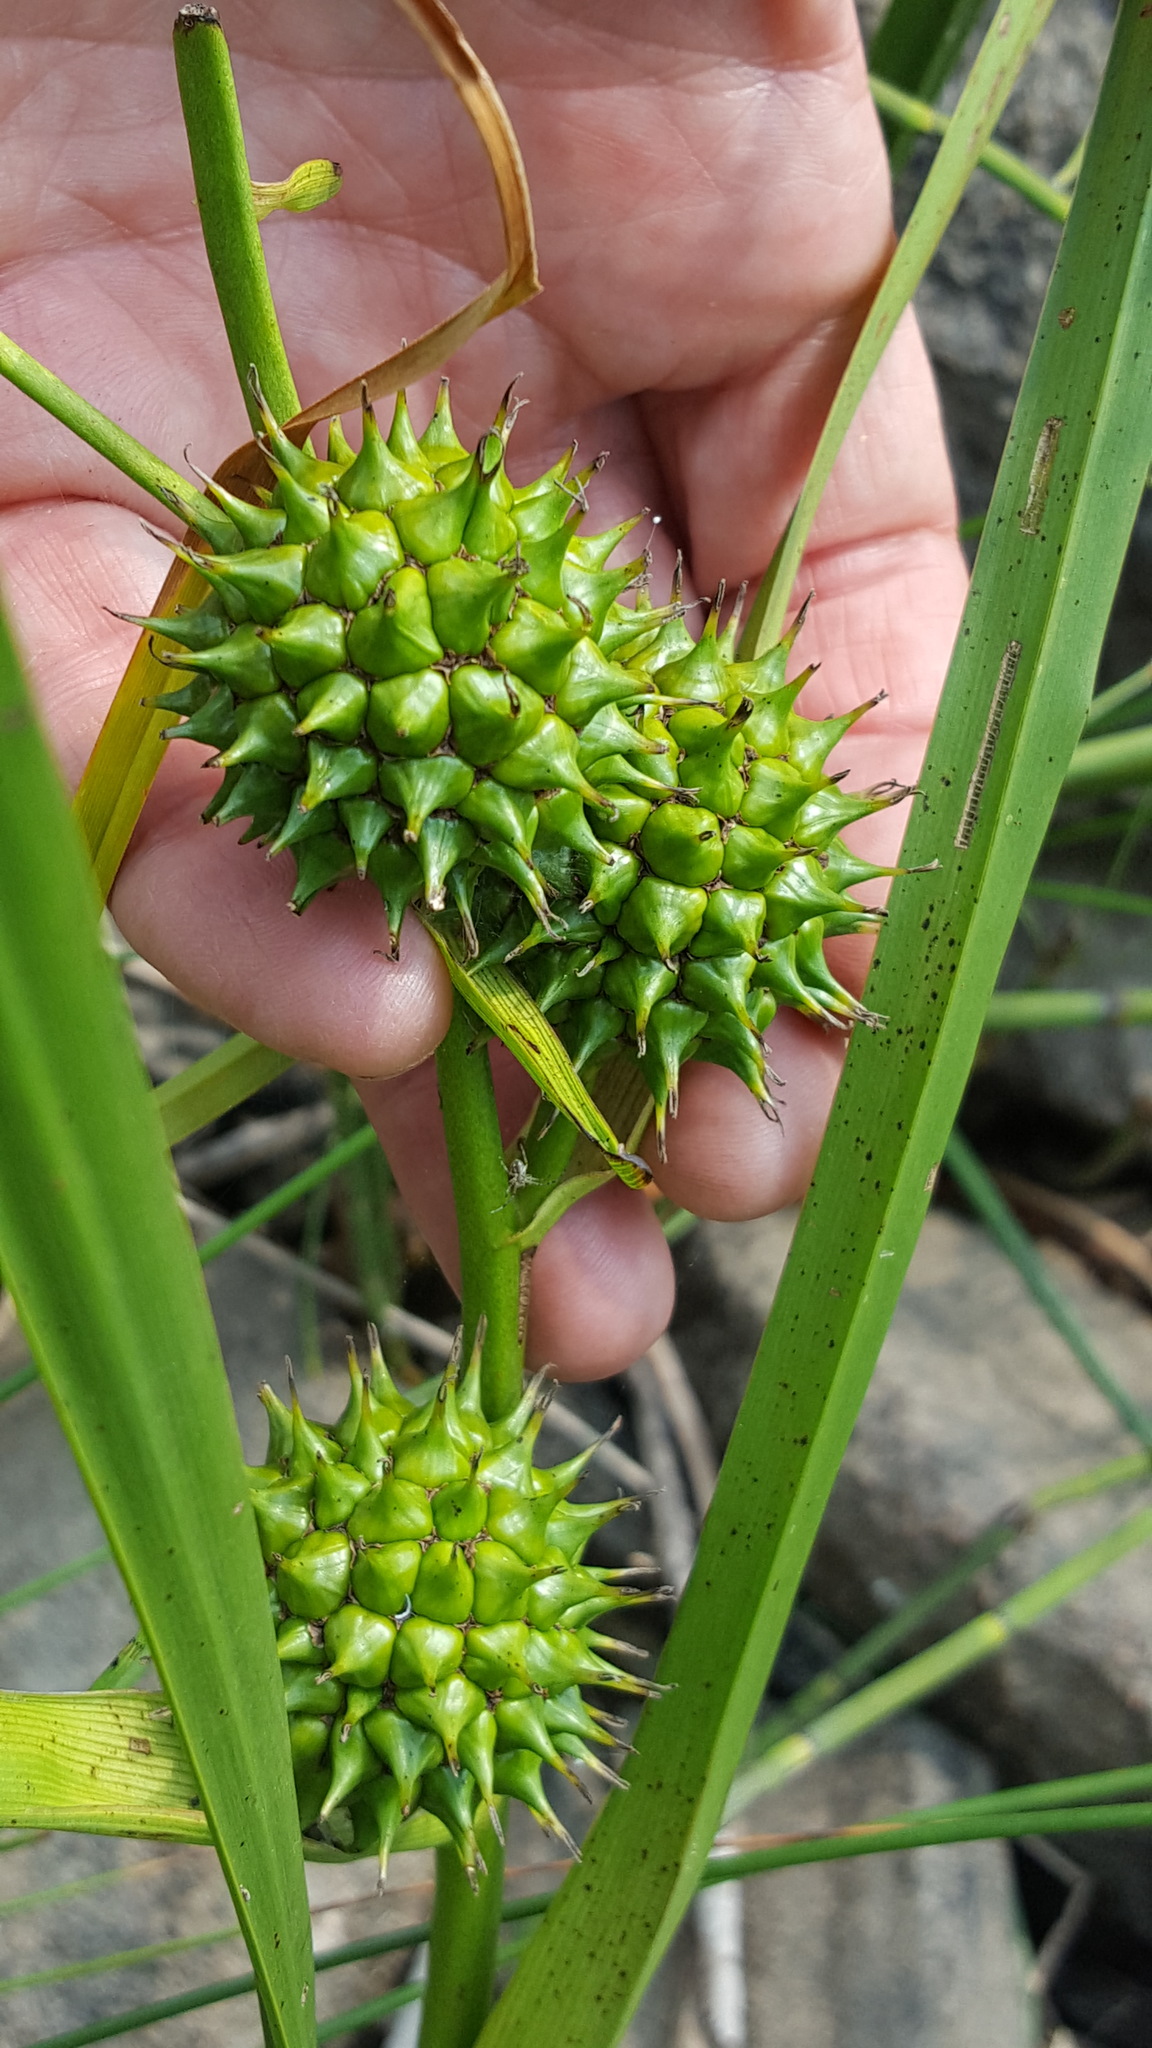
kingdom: Plantae
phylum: Tracheophyta
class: Liliopsida
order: Poales
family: Typhaceae
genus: Sparganium
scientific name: Sparganium eurycarpum
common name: Broad-fruited burreed
